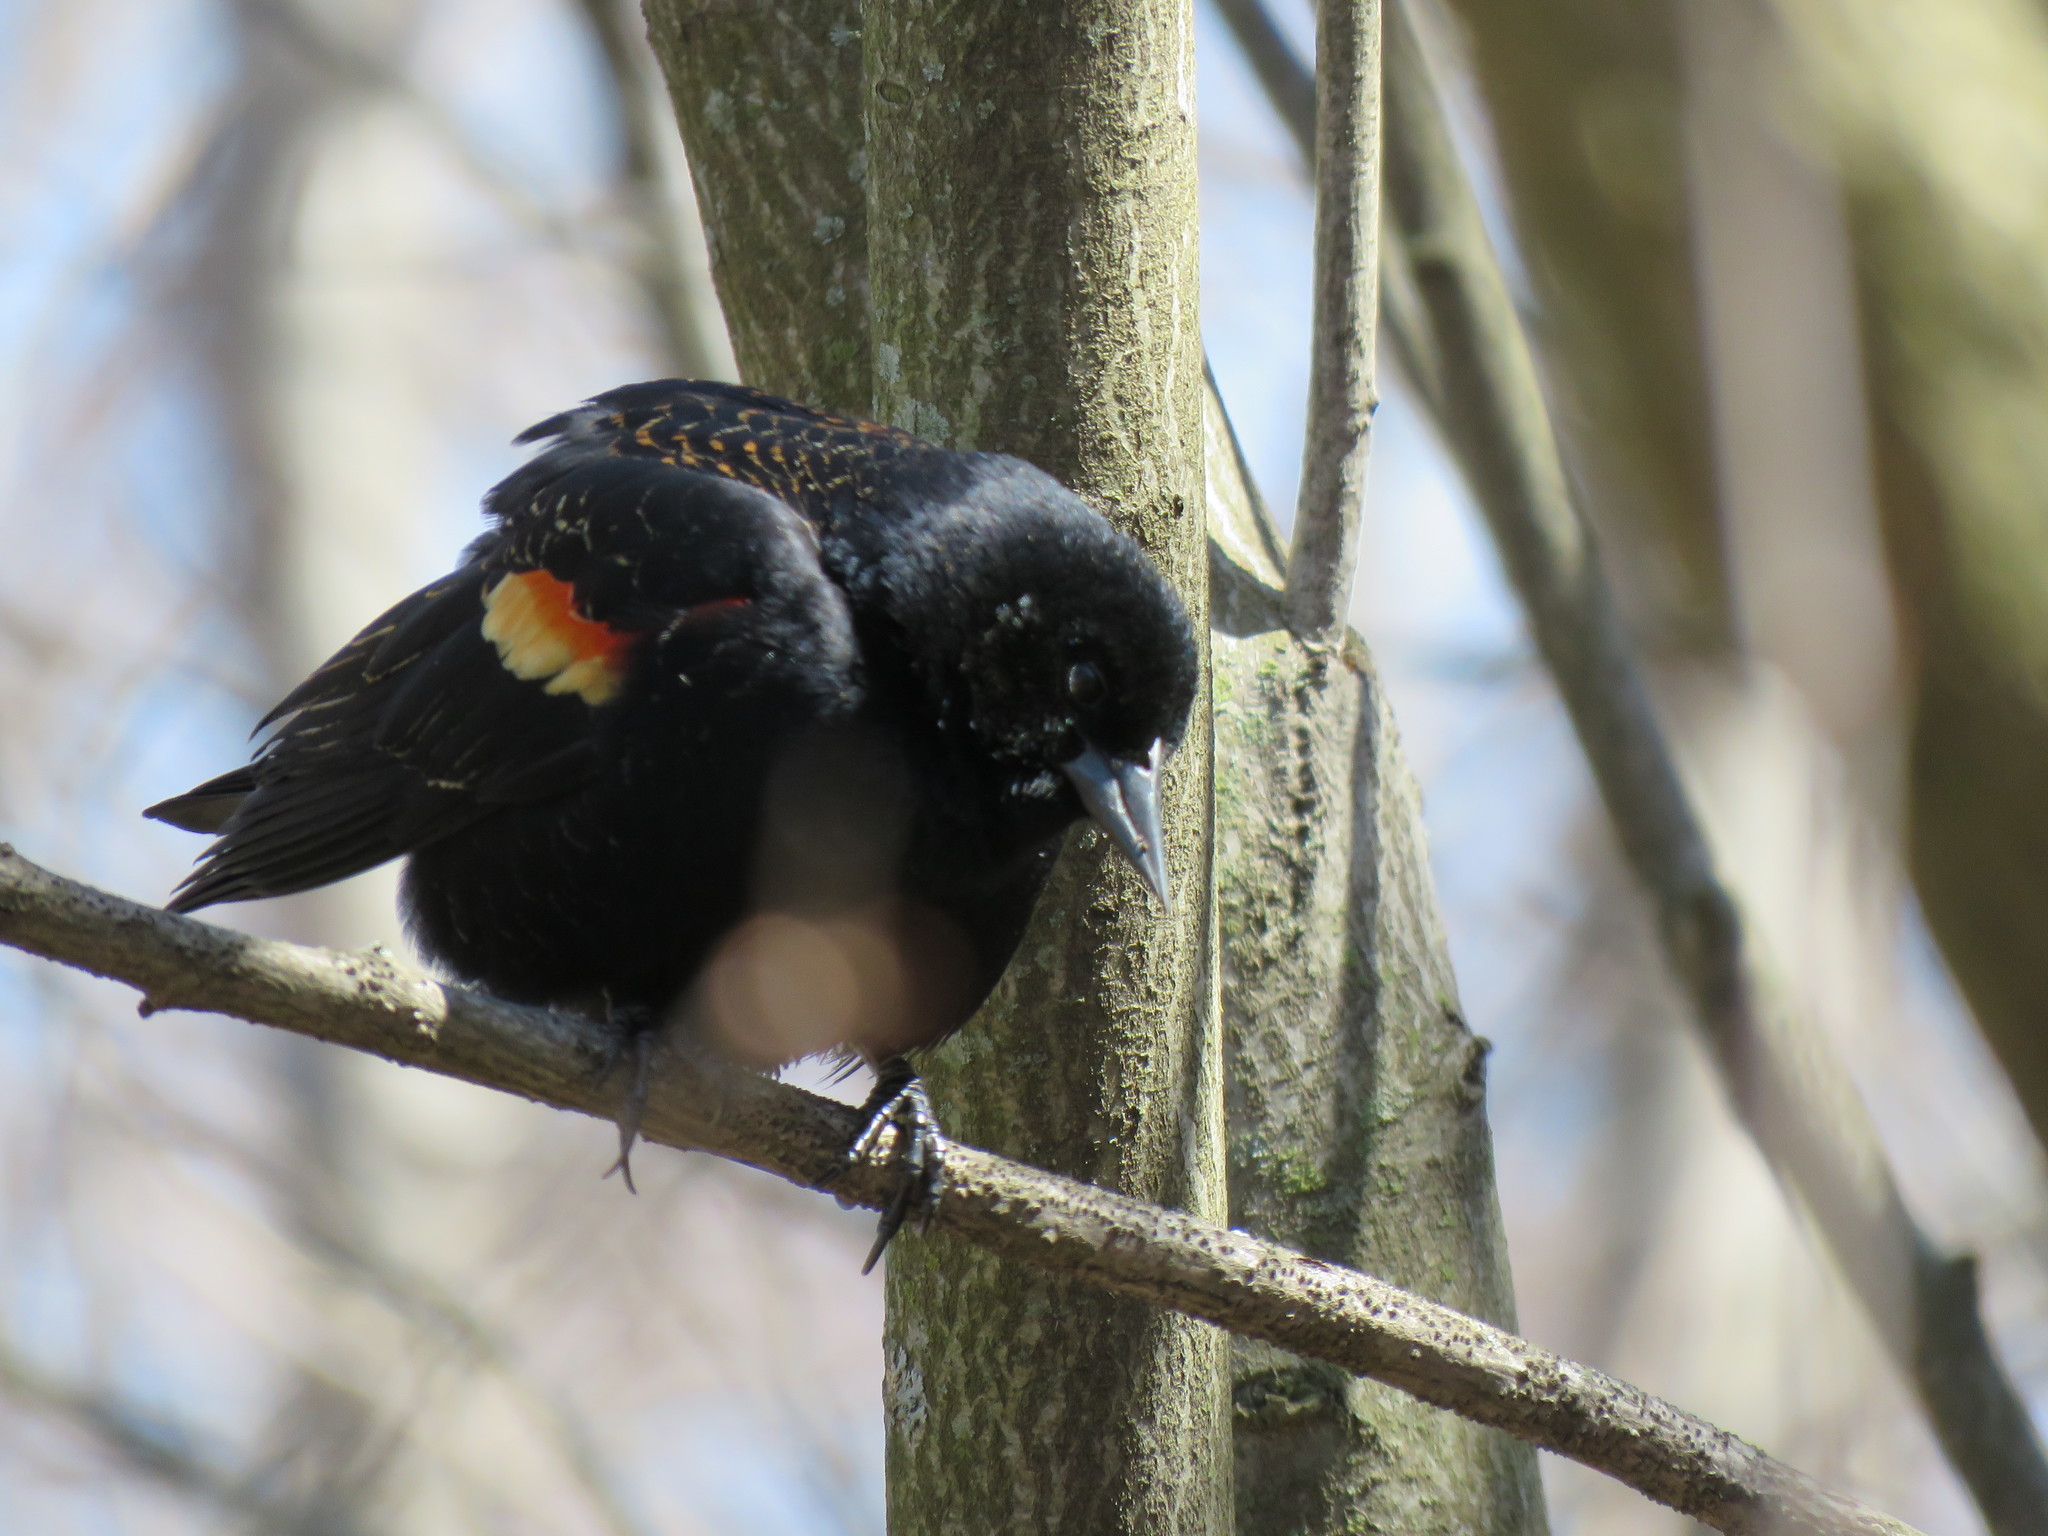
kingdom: Animalia
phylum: Chordata
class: Aves
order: Passeriformes
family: Icteridae
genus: Agelaius
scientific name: Agelaius phoeniceus
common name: Red-winged blackbird
